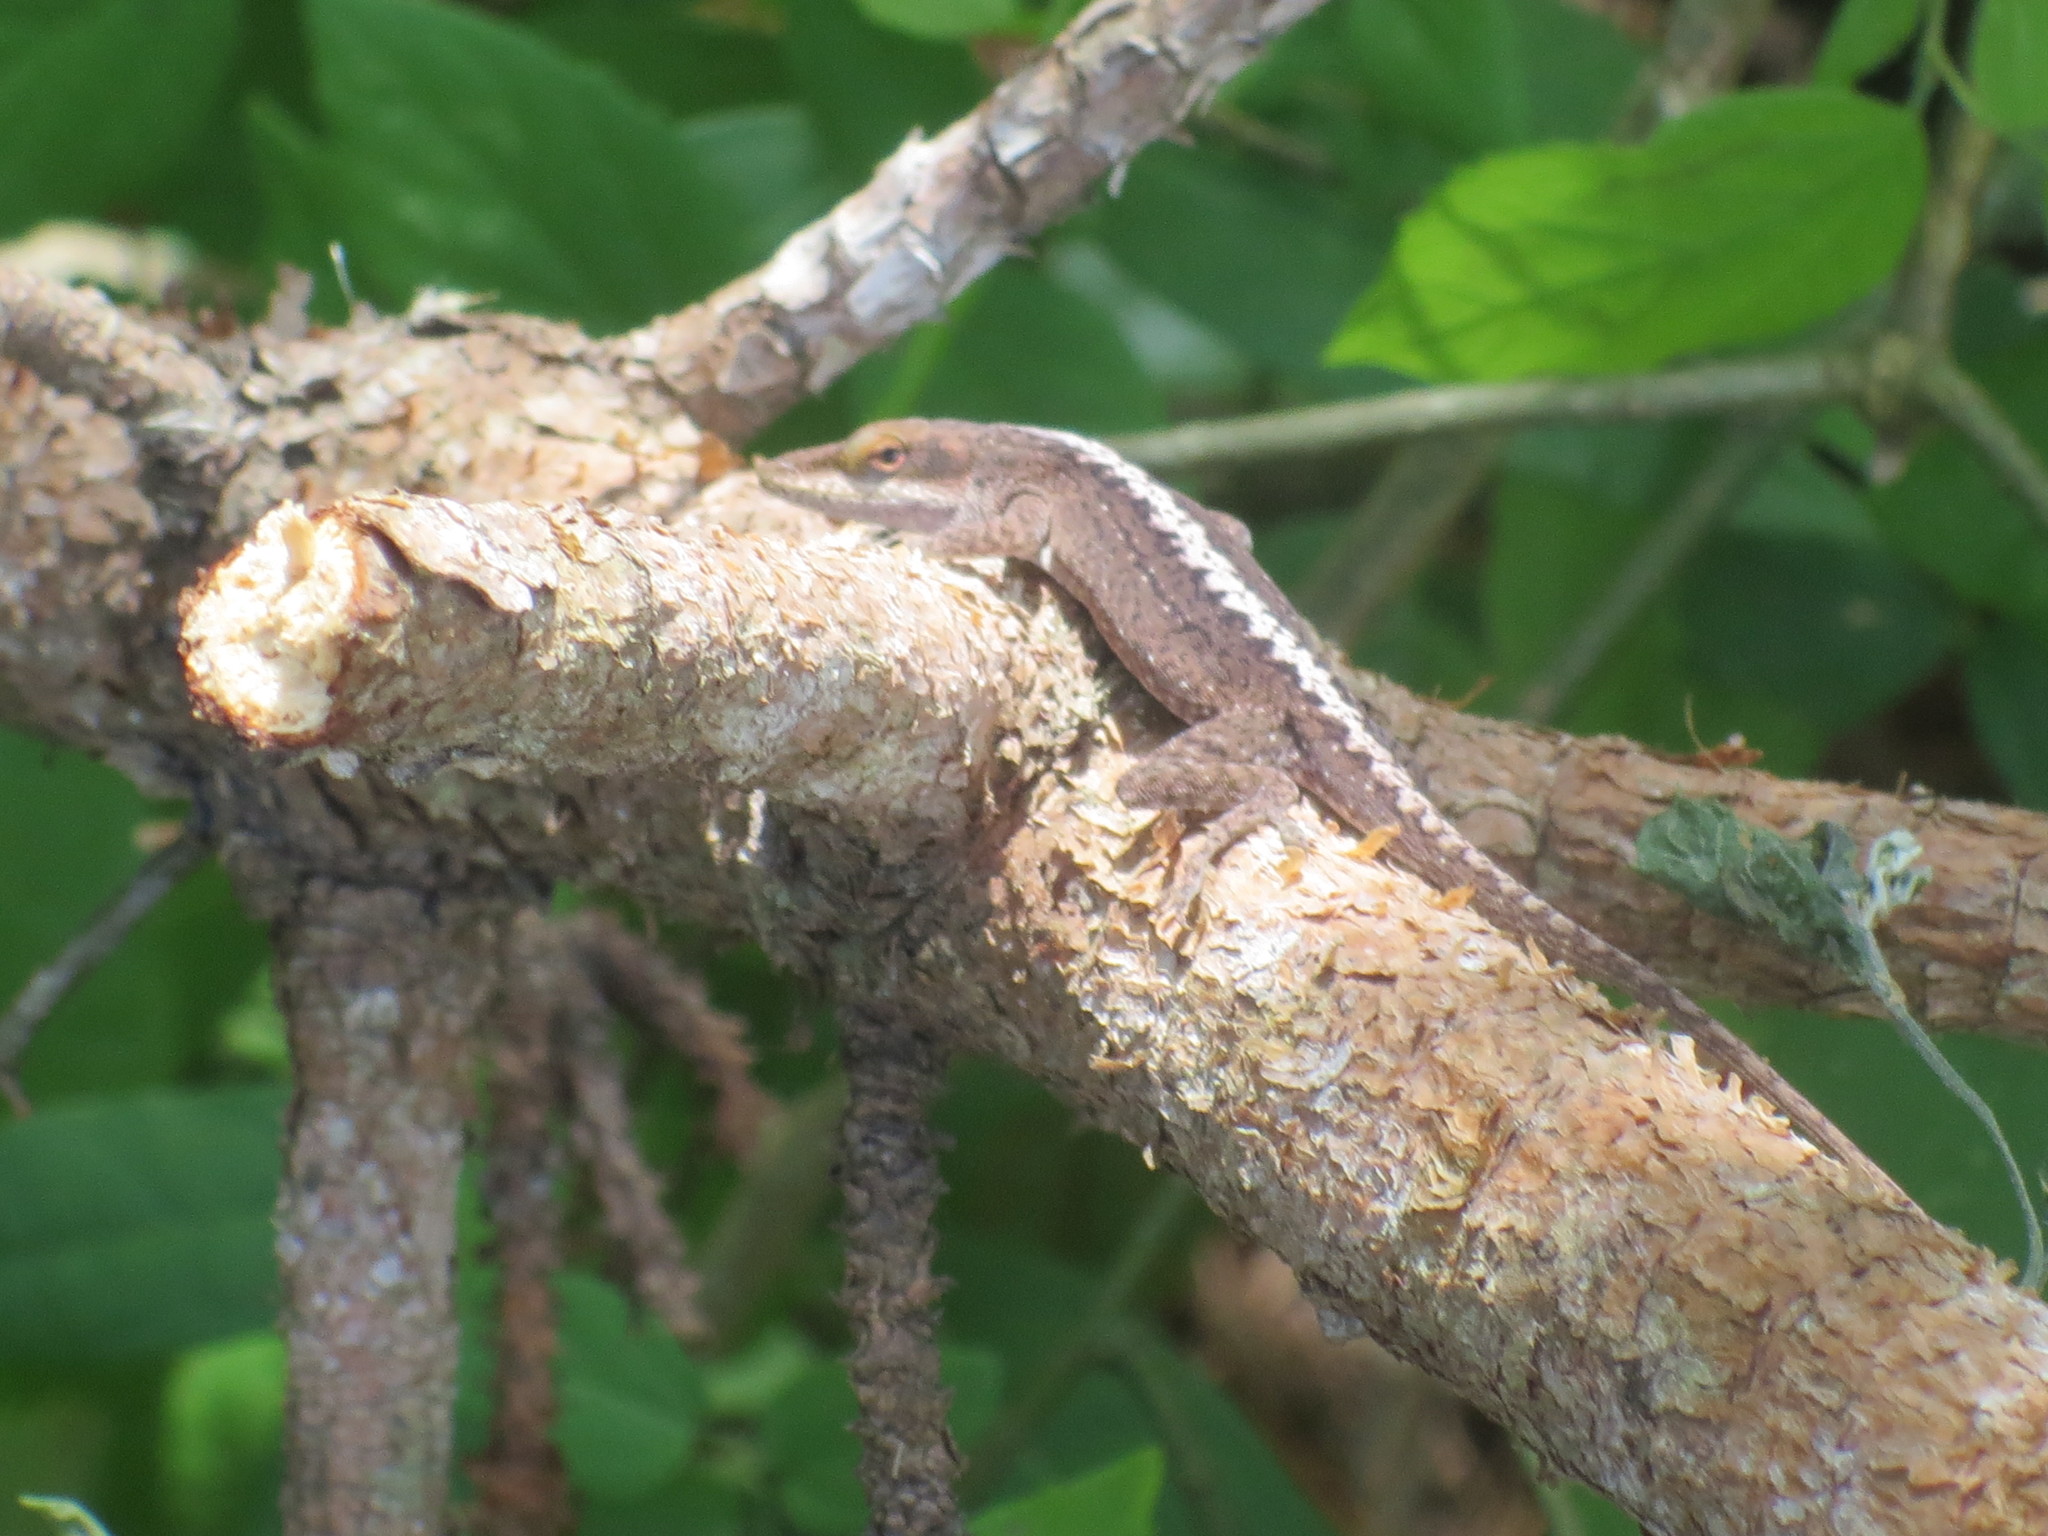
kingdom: Animalia
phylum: Chordata
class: Squamata
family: Dactyloidae
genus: Anolis
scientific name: Anolis carolinensis
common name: Green anole
